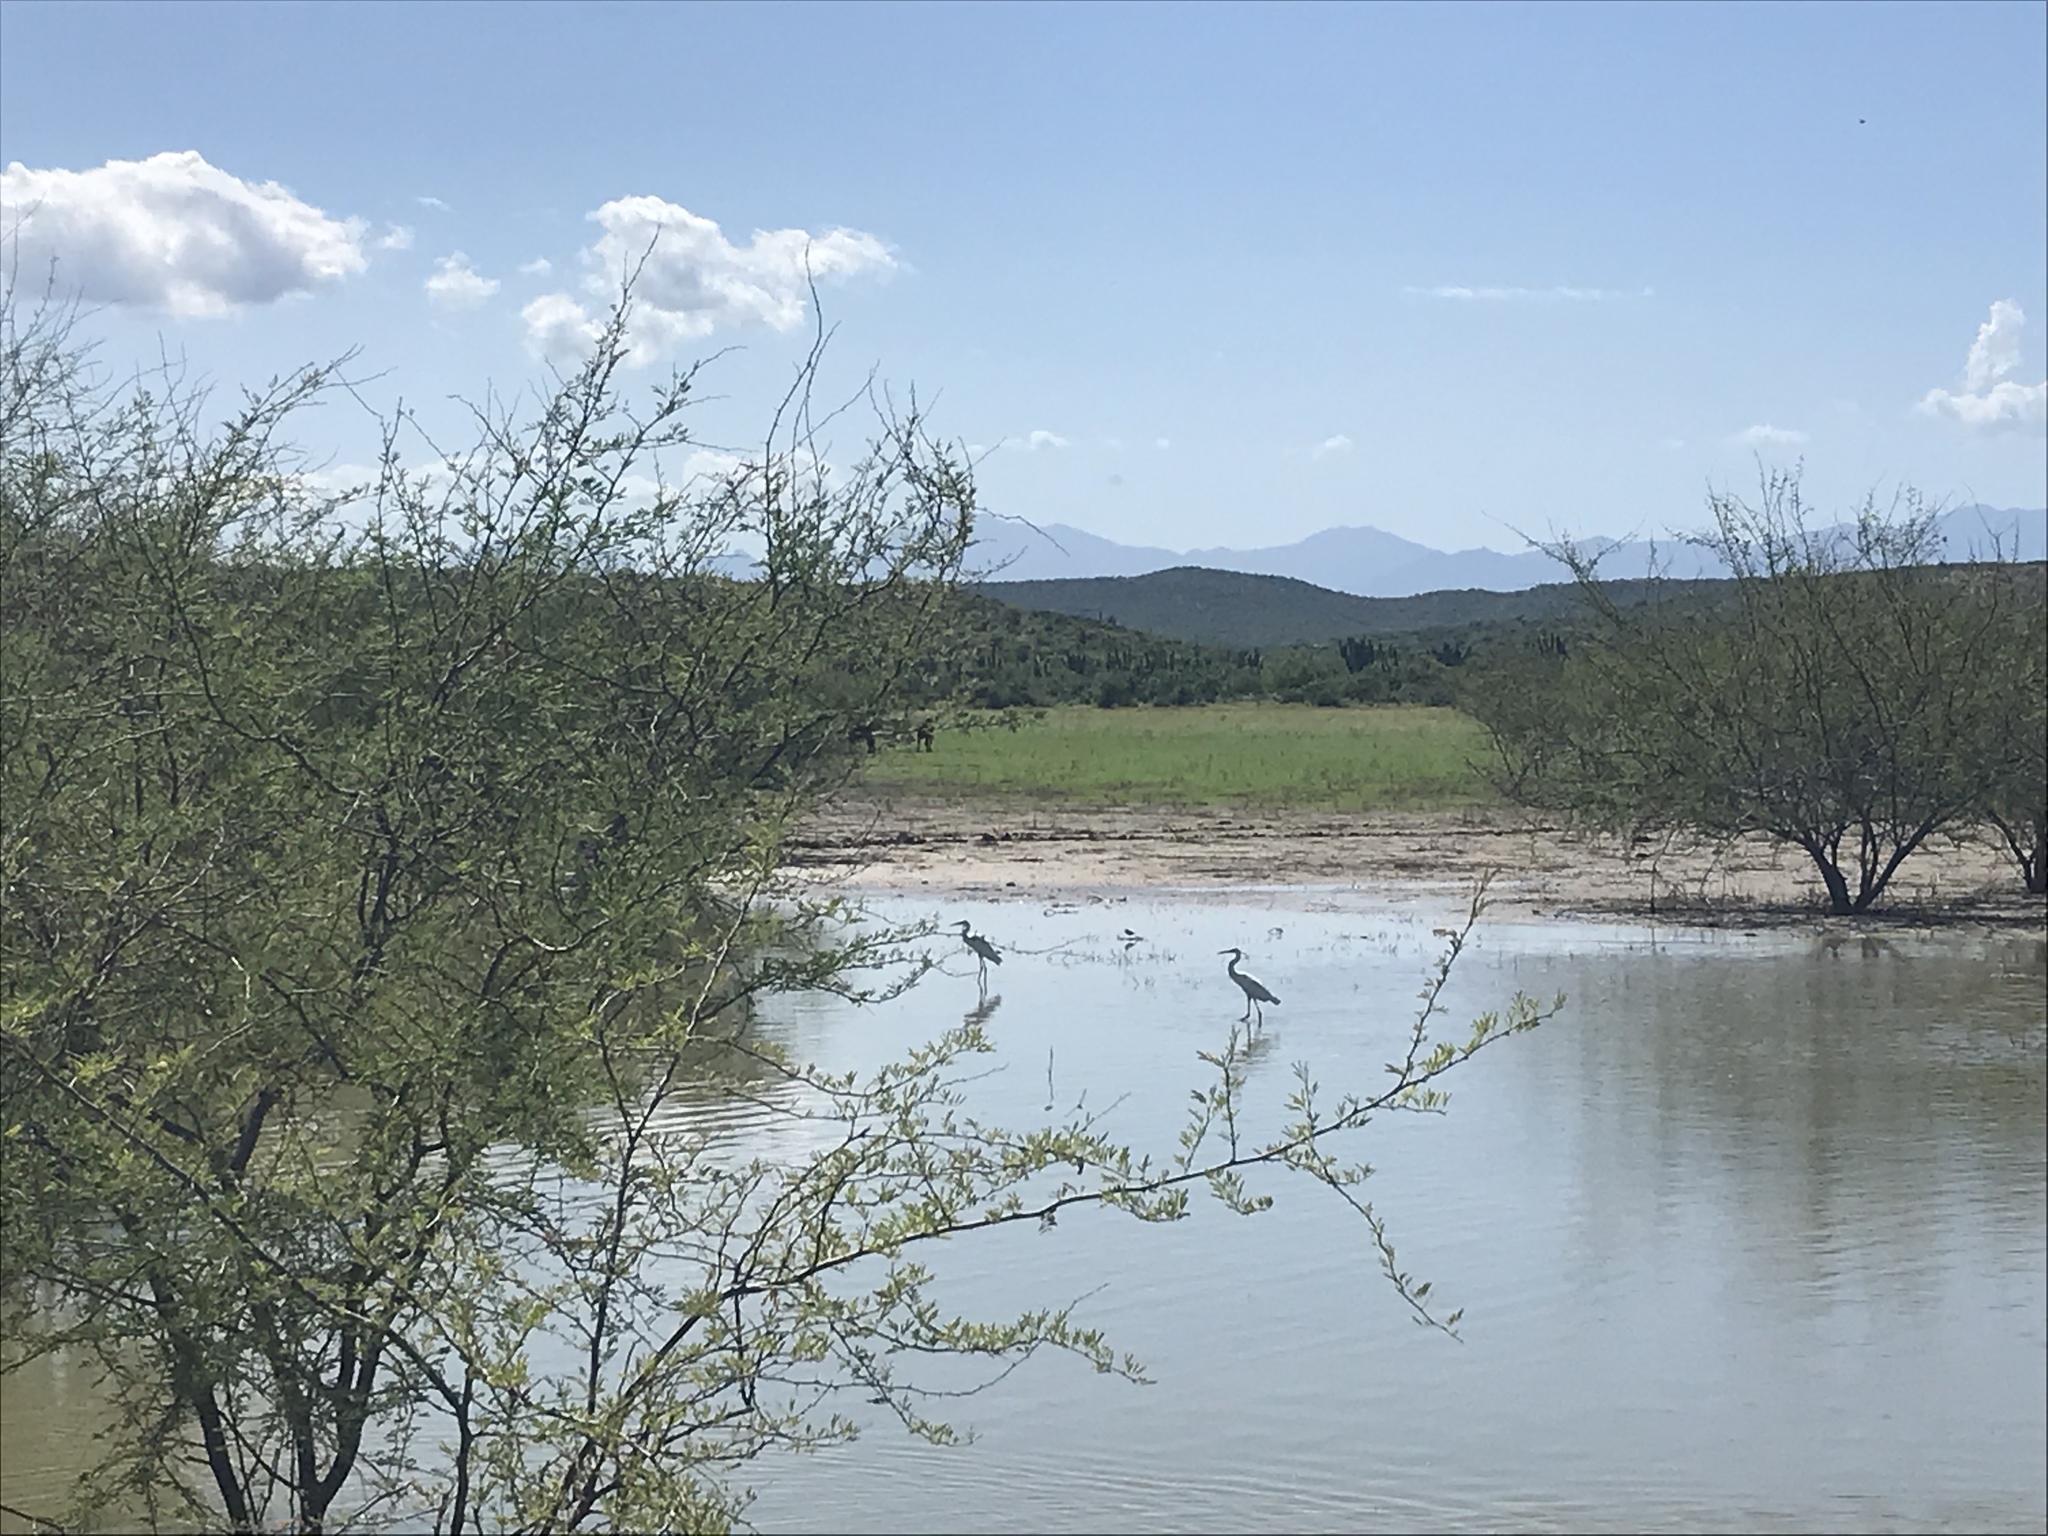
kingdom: Animalia
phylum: Chordata
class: Aves
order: Pelecaniformes
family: Ardeidae
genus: Ardea
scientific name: Ardea herodias
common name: Great blue heron
